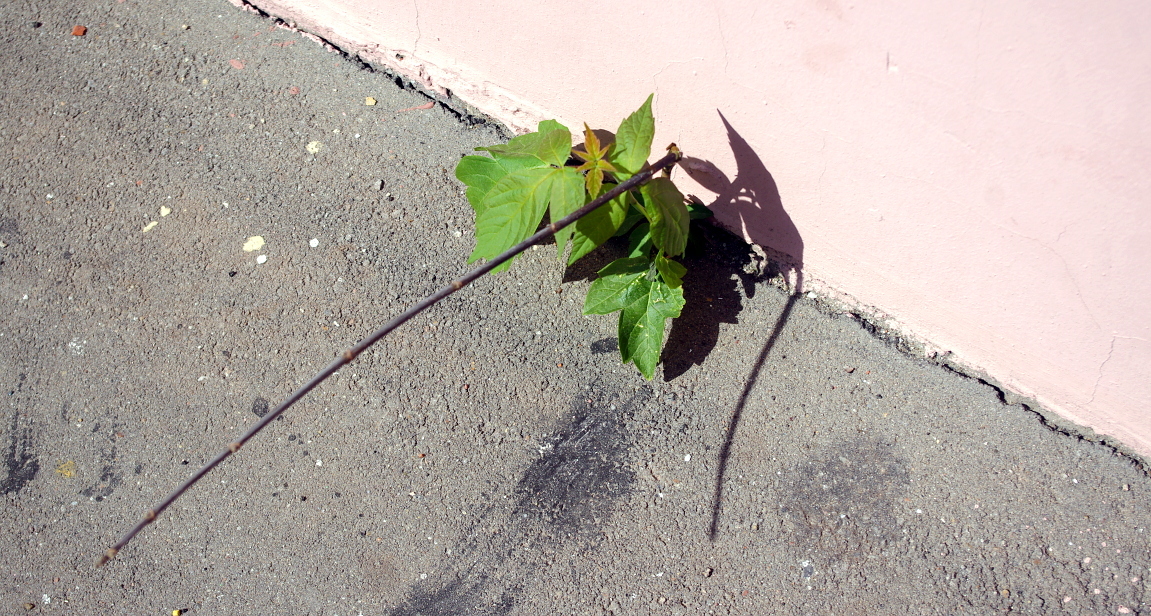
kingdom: Plantae
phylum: Tracheophyta
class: Magnoliopsida
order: Sapindales
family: Sapindaceae
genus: Acer
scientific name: Acer negundo
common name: Ashleaf maple
